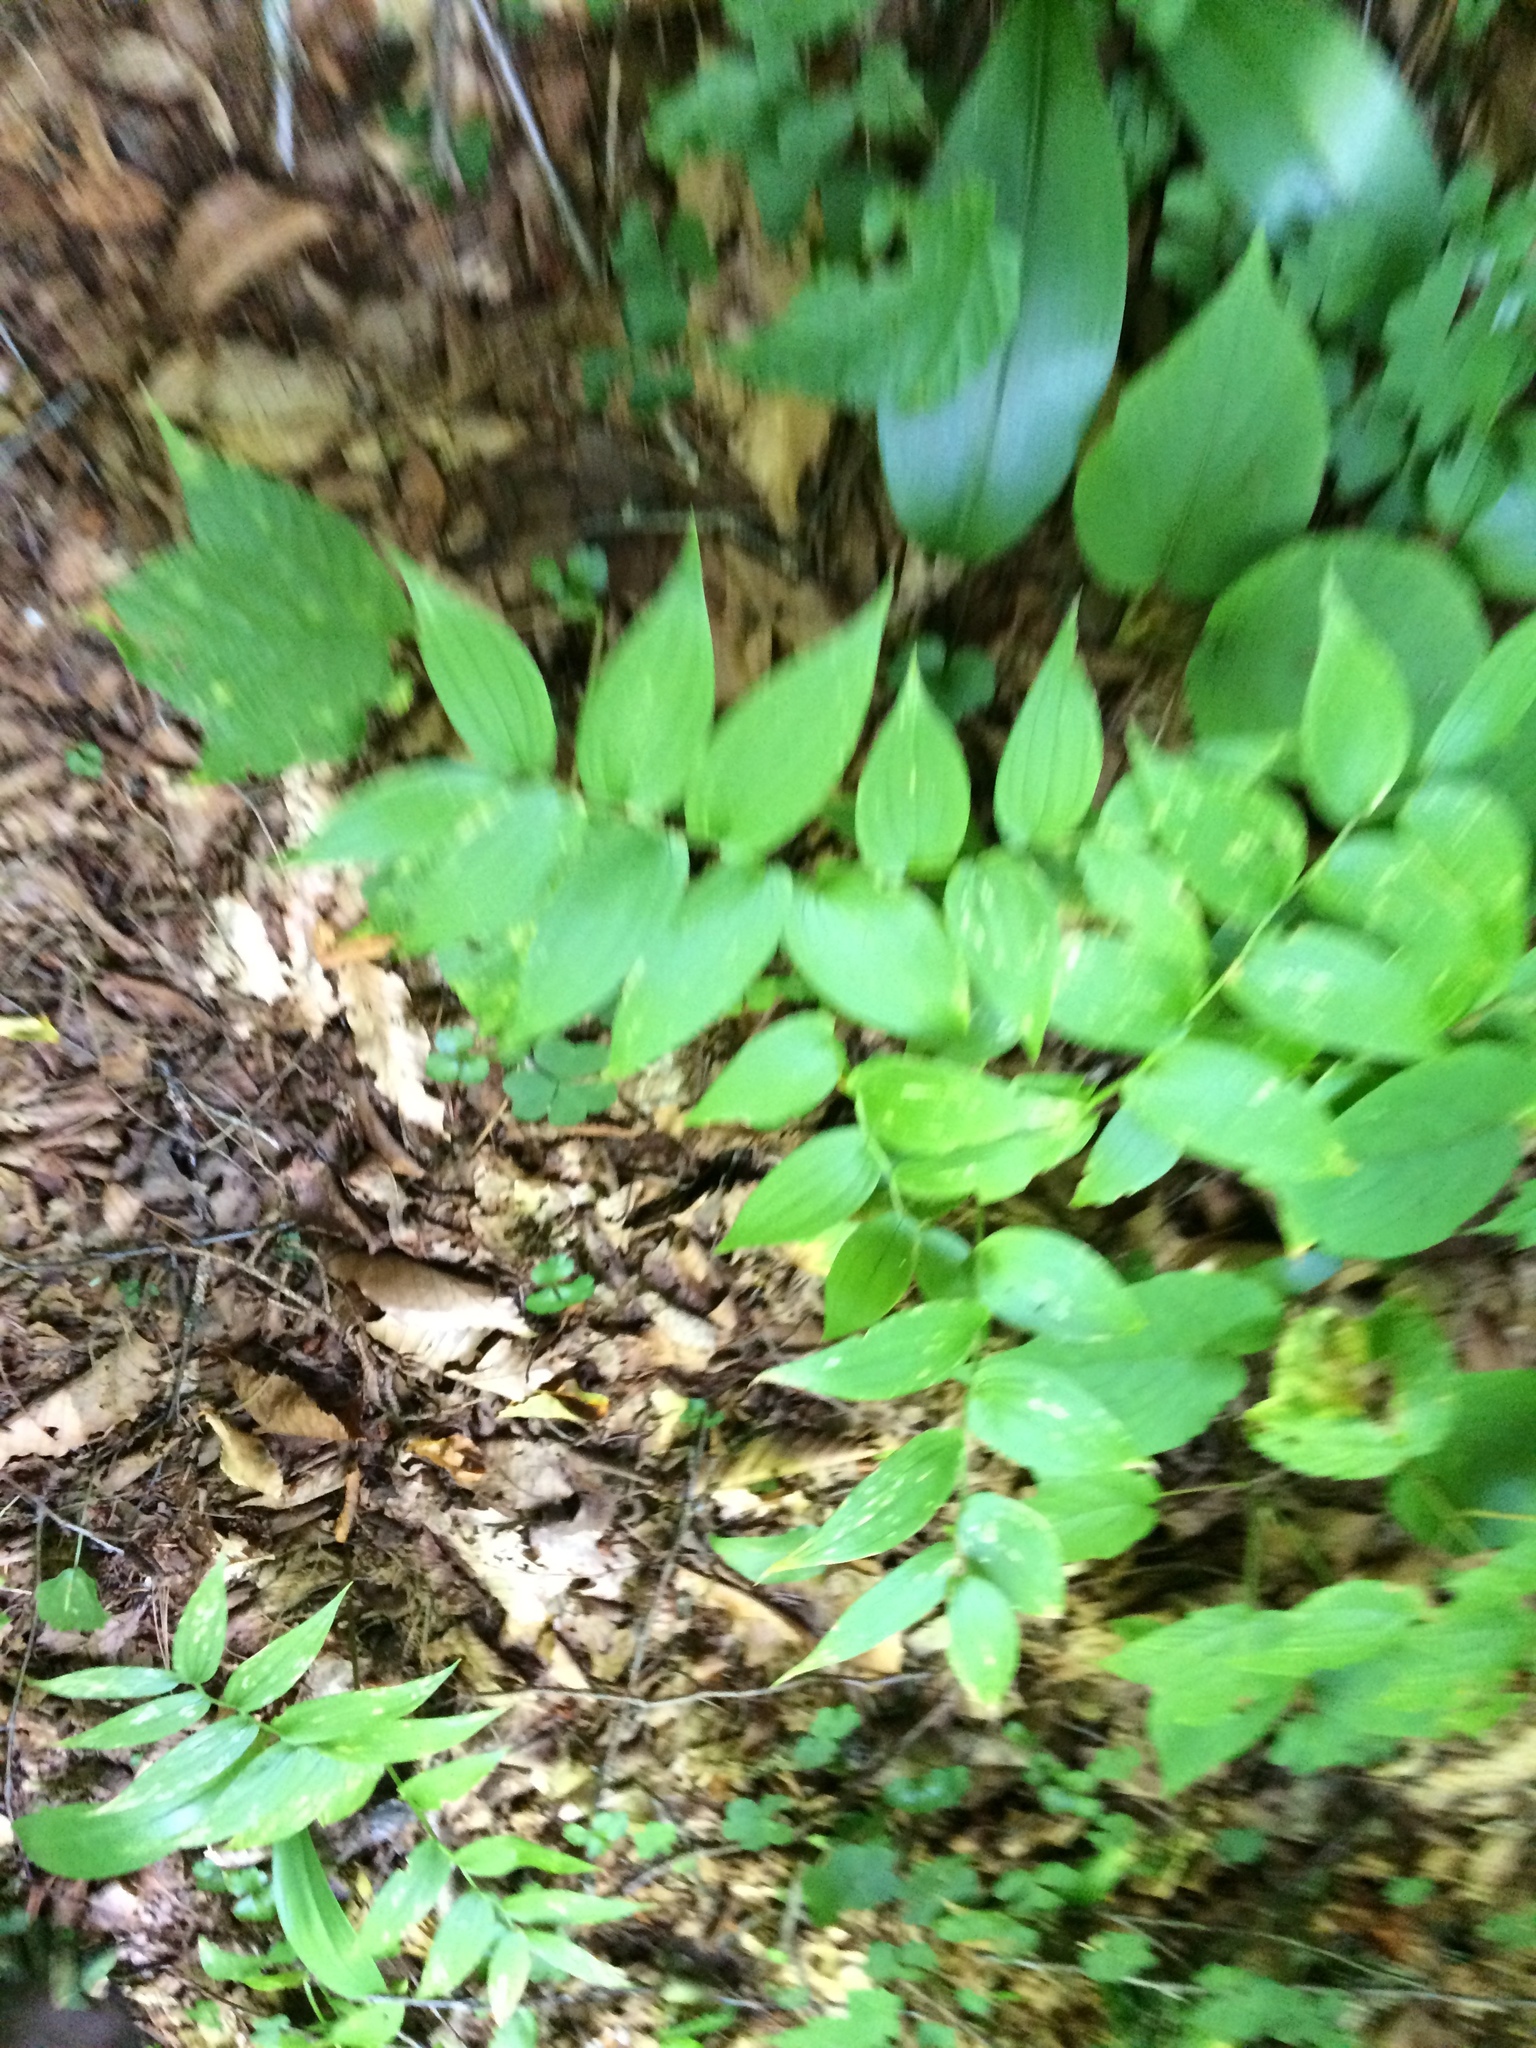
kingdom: Plantae
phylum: Tracheophyta
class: Liliopsida
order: Liliales
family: Liliaceae
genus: Streptopus
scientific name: Streptopus lanceolatus
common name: Rose mandarin
